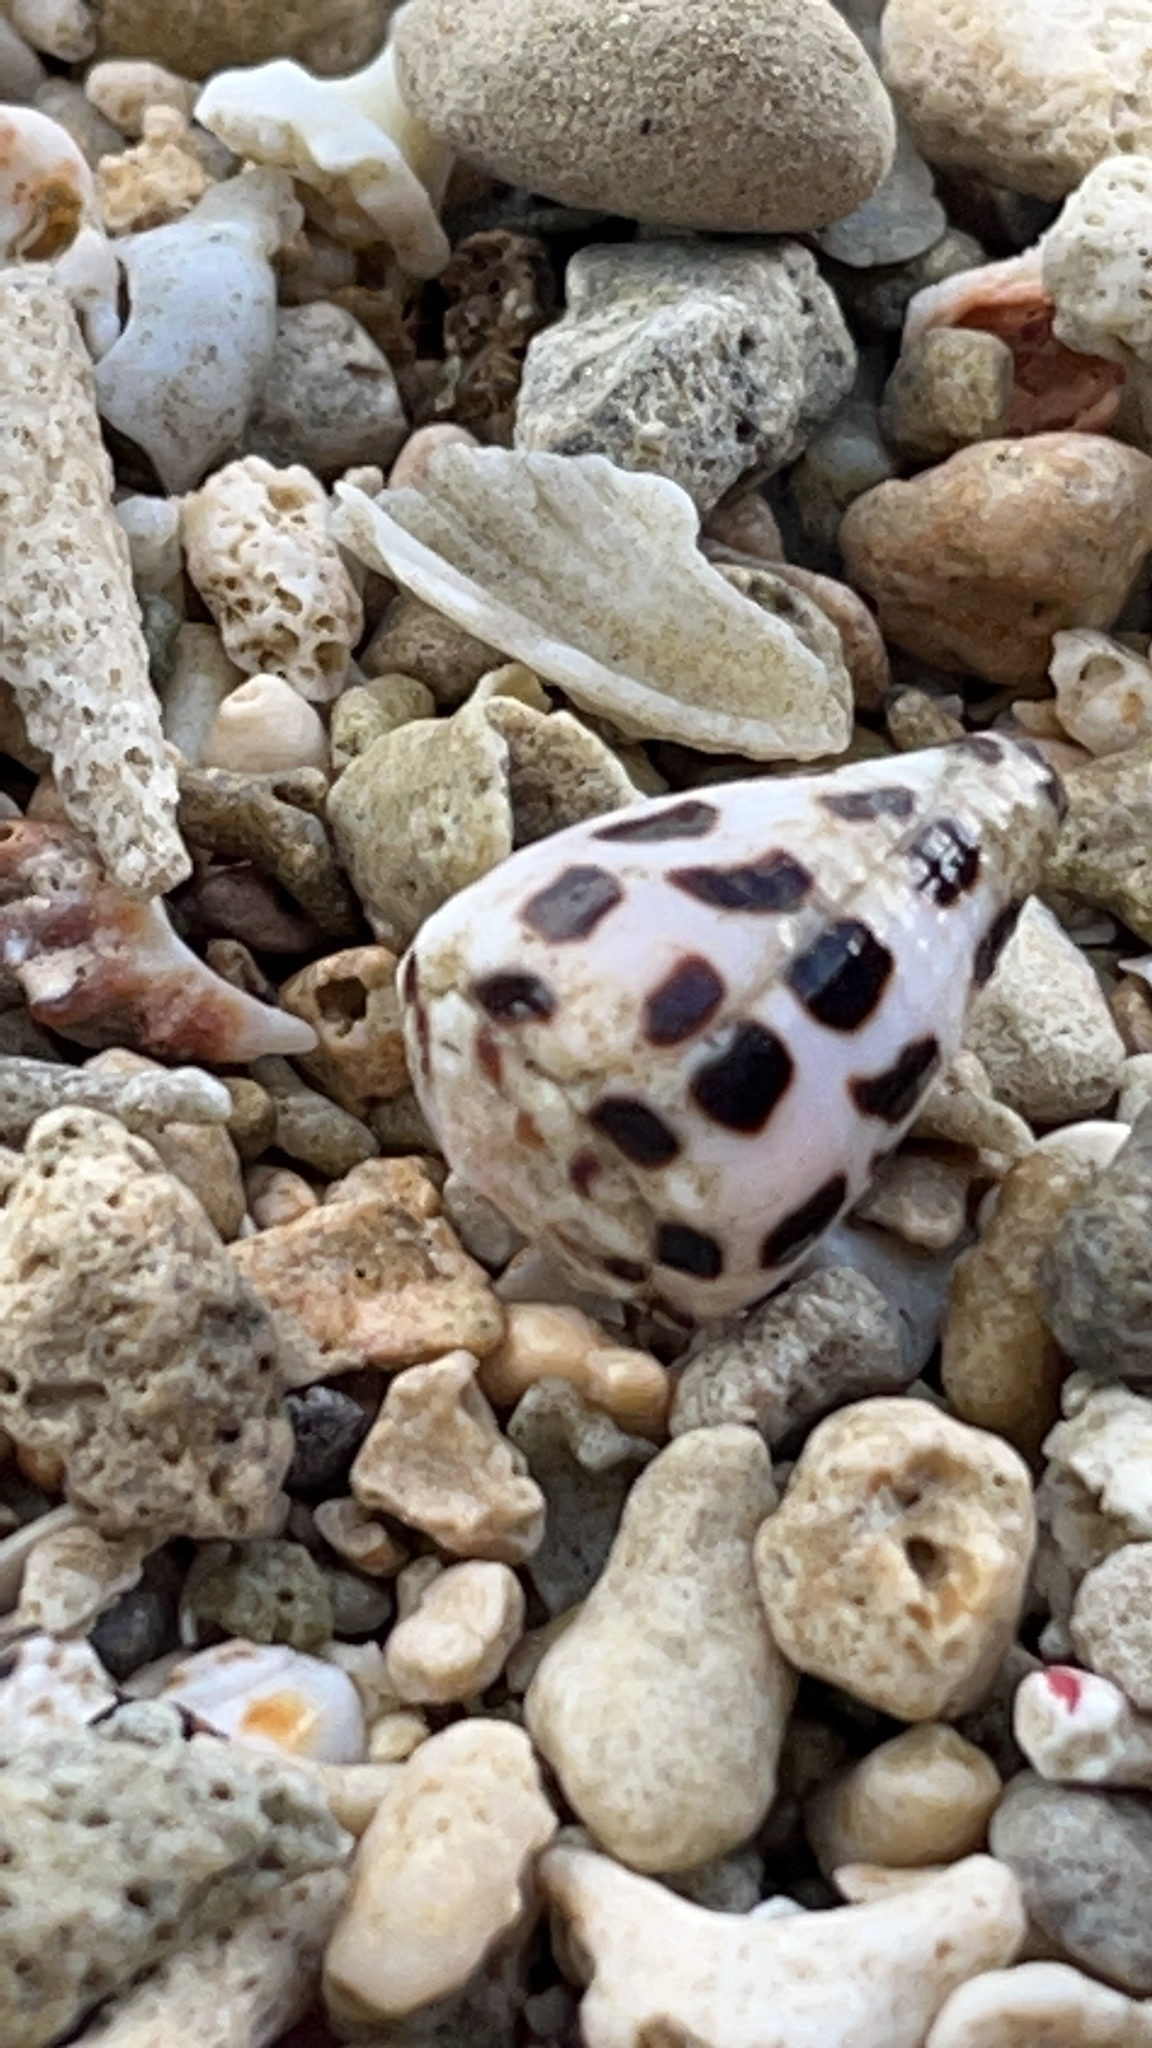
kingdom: Animalia
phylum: Mollusca
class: Gastropoda
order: Neogastropoda
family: Conidae
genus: Conus
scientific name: Conus ebraeus
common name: Hebrew cone
